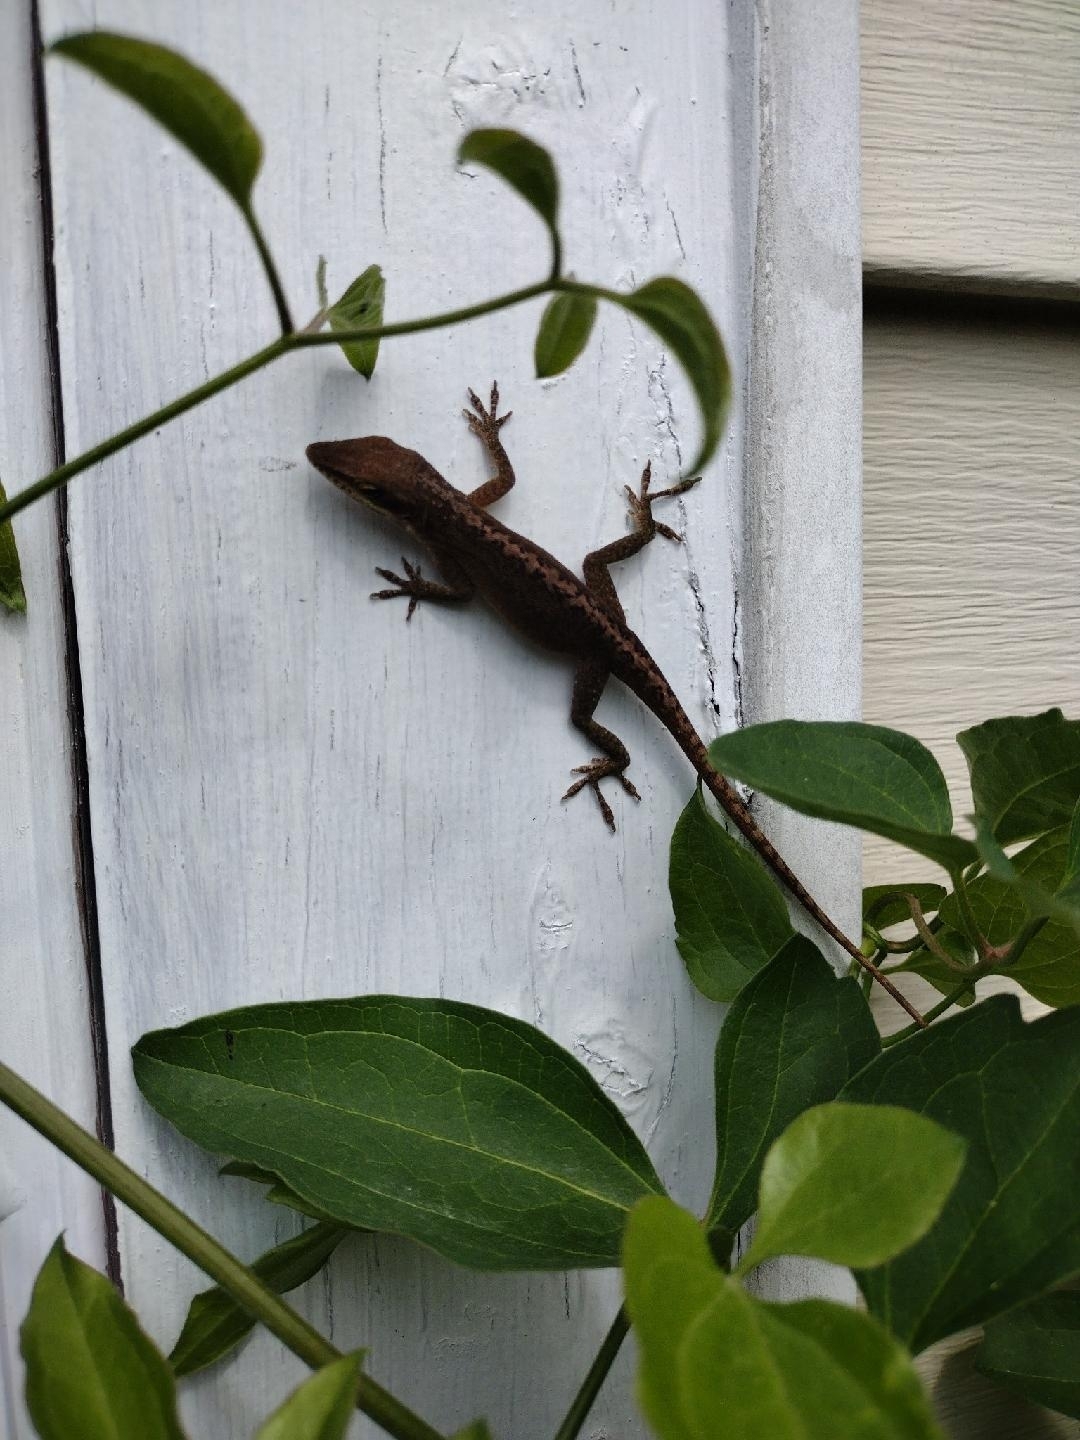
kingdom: Animalia
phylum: Chordata
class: Squamata
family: Dactyloidae
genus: Anolis
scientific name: Anolis carolinensis
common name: Green anole
